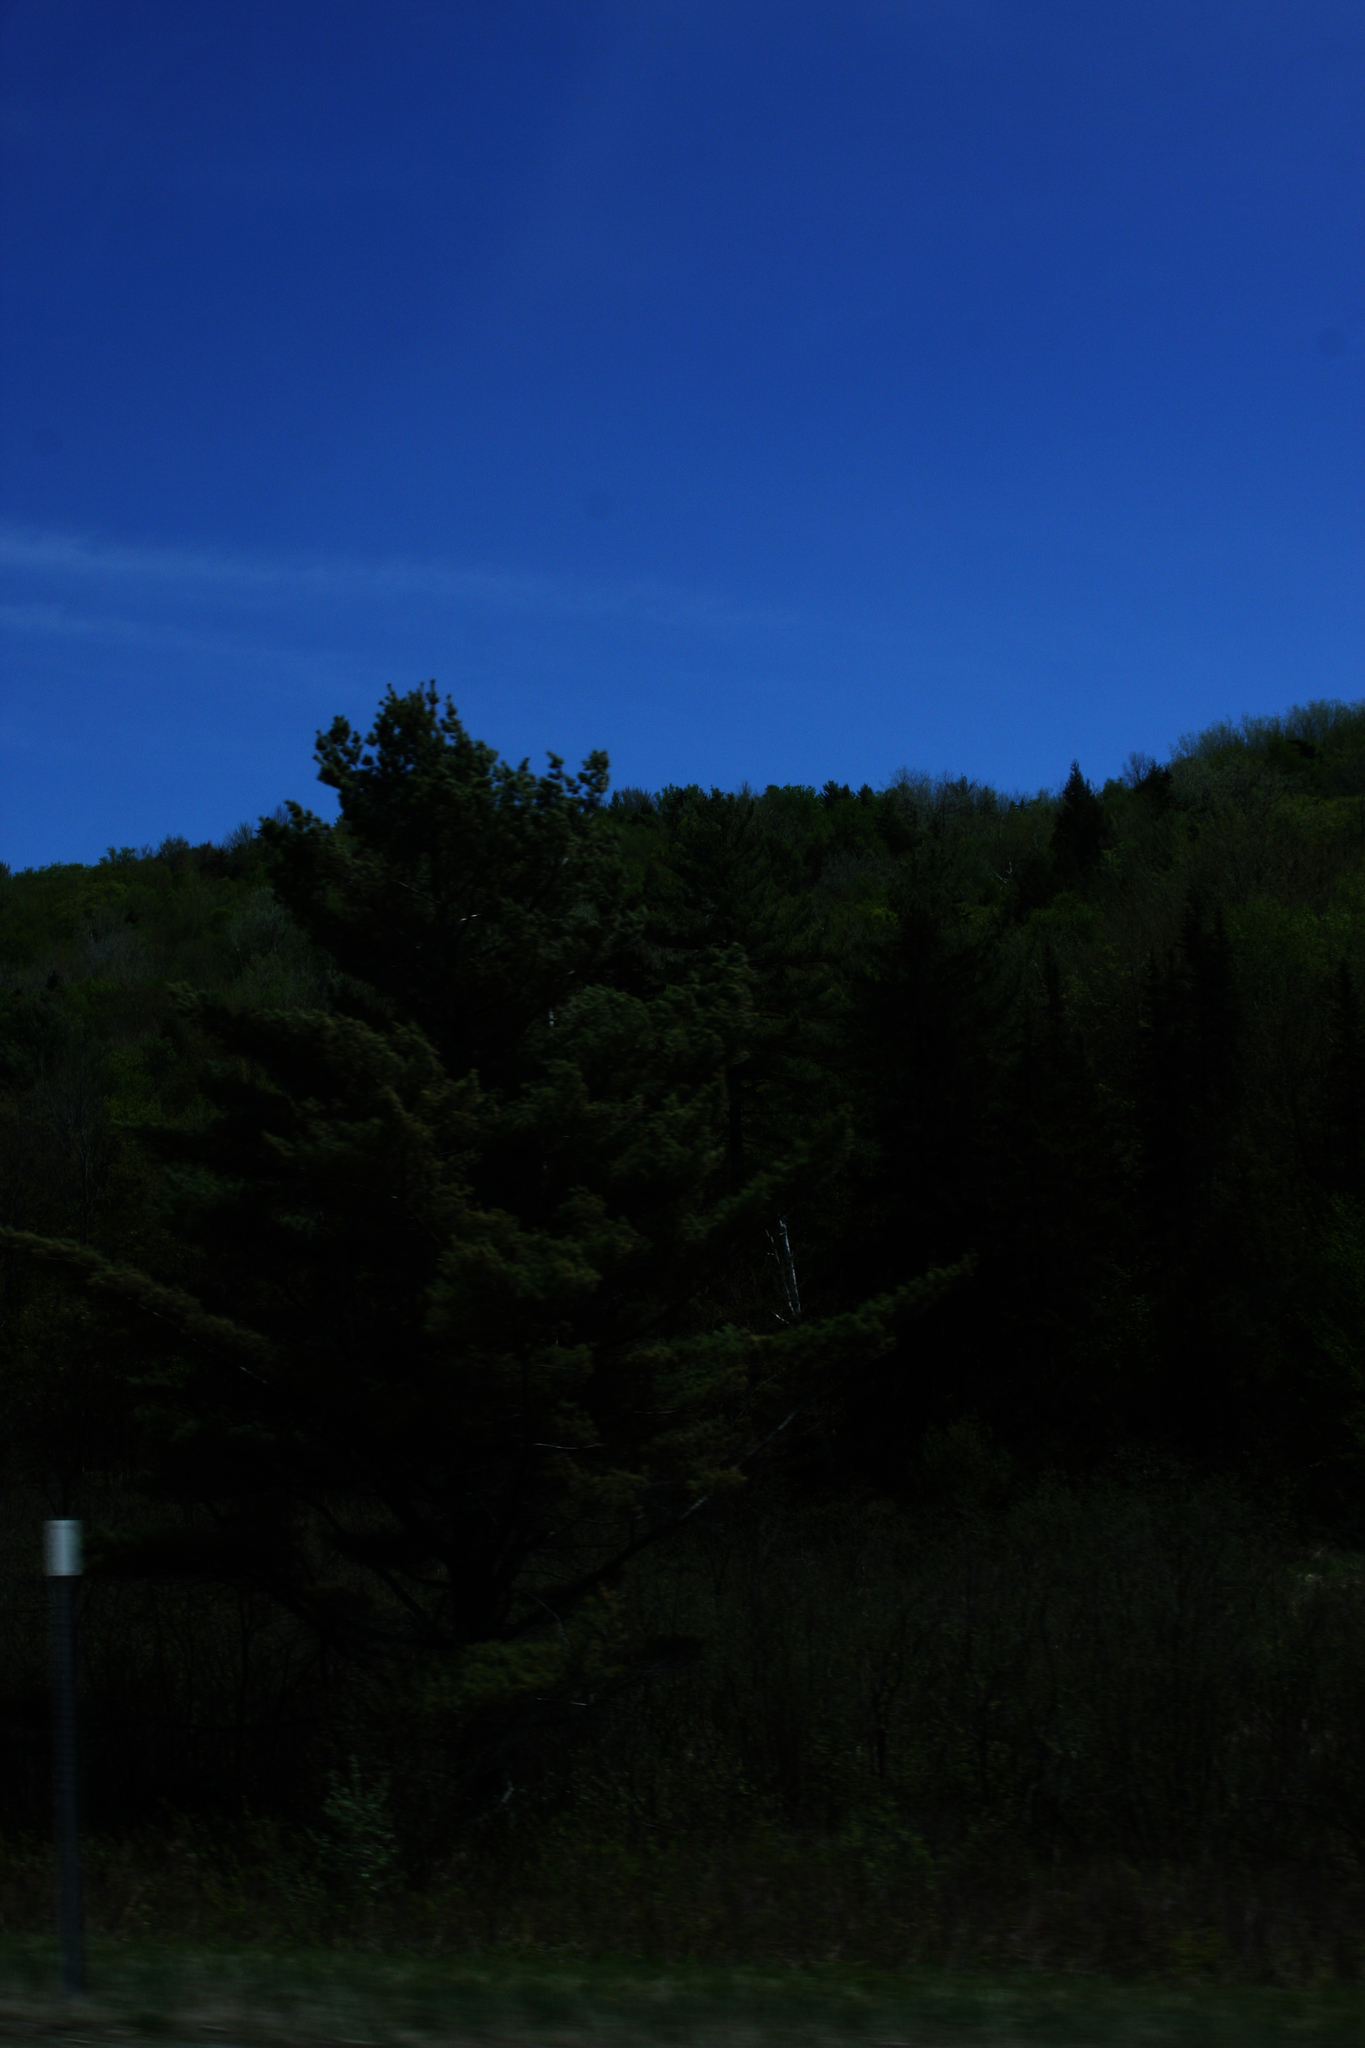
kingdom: Plantae
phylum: Tracheophyta
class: Pinopsida
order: Pinales
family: Pinaceae
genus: Pinus
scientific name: Pinus strobus
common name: Weymouth pine
